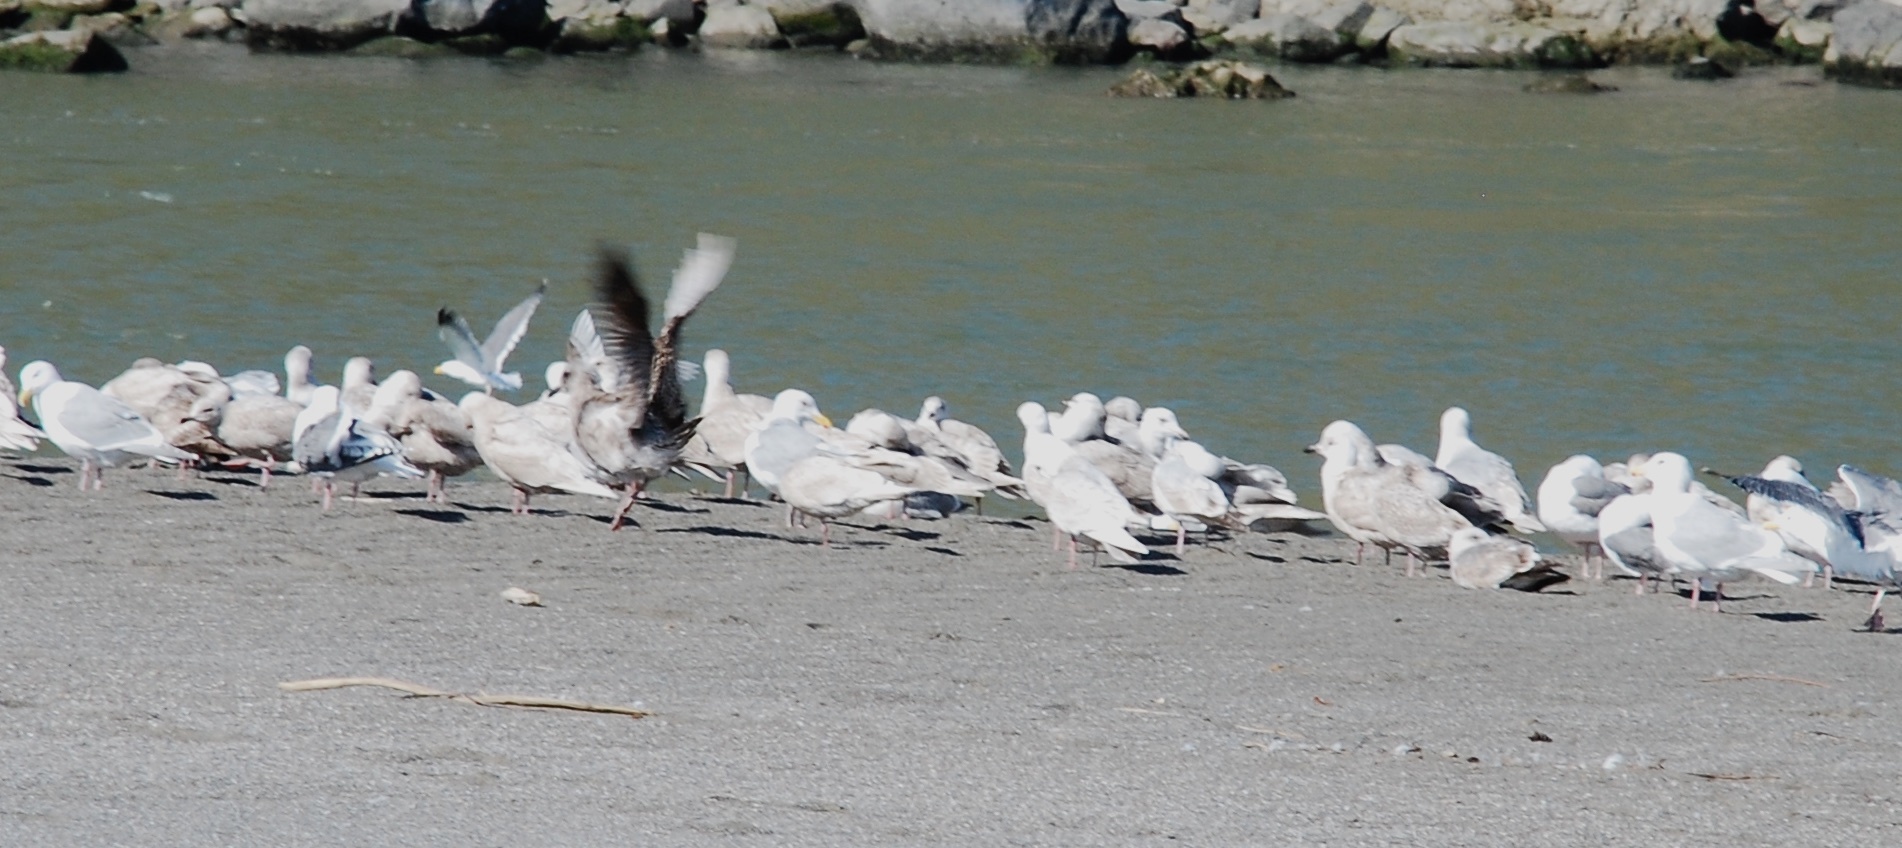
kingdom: Animalia
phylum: Chordata
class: Aves
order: Charadriiformes
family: Laridae
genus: Larus
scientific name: Larus glaucescens
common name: Glaucous-winged gull
